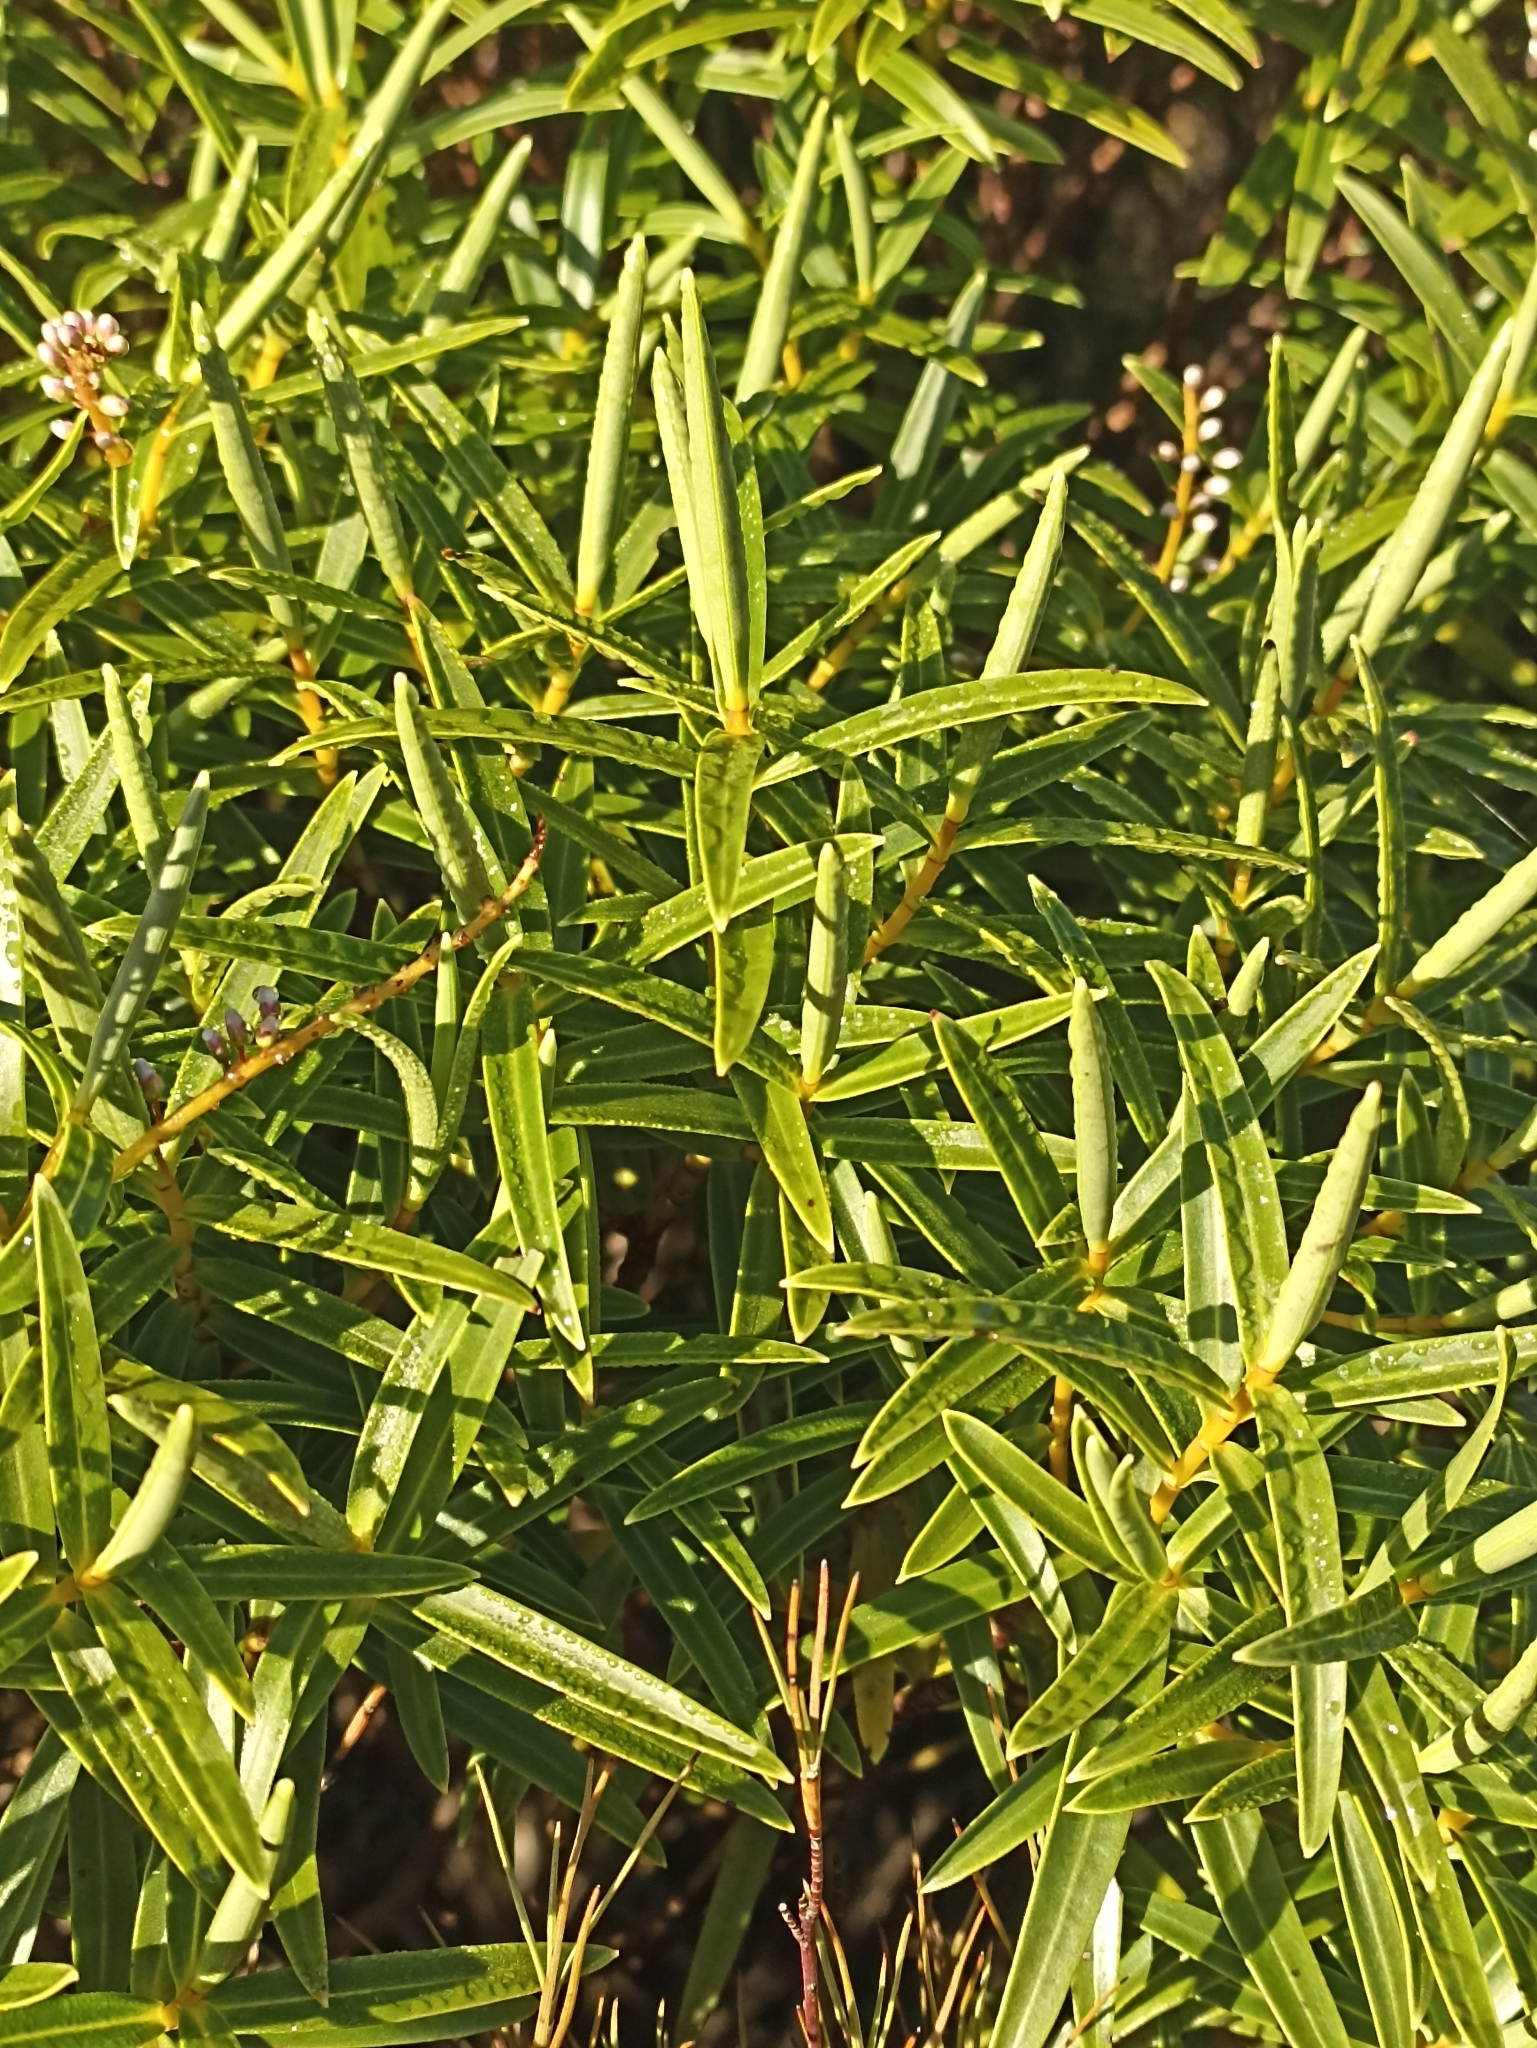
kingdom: Plantae
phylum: Tracheophyta
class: Magnoliopsida
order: Lamiales
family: Plantaginaceae
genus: Veronica
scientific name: Veronica parviflora
